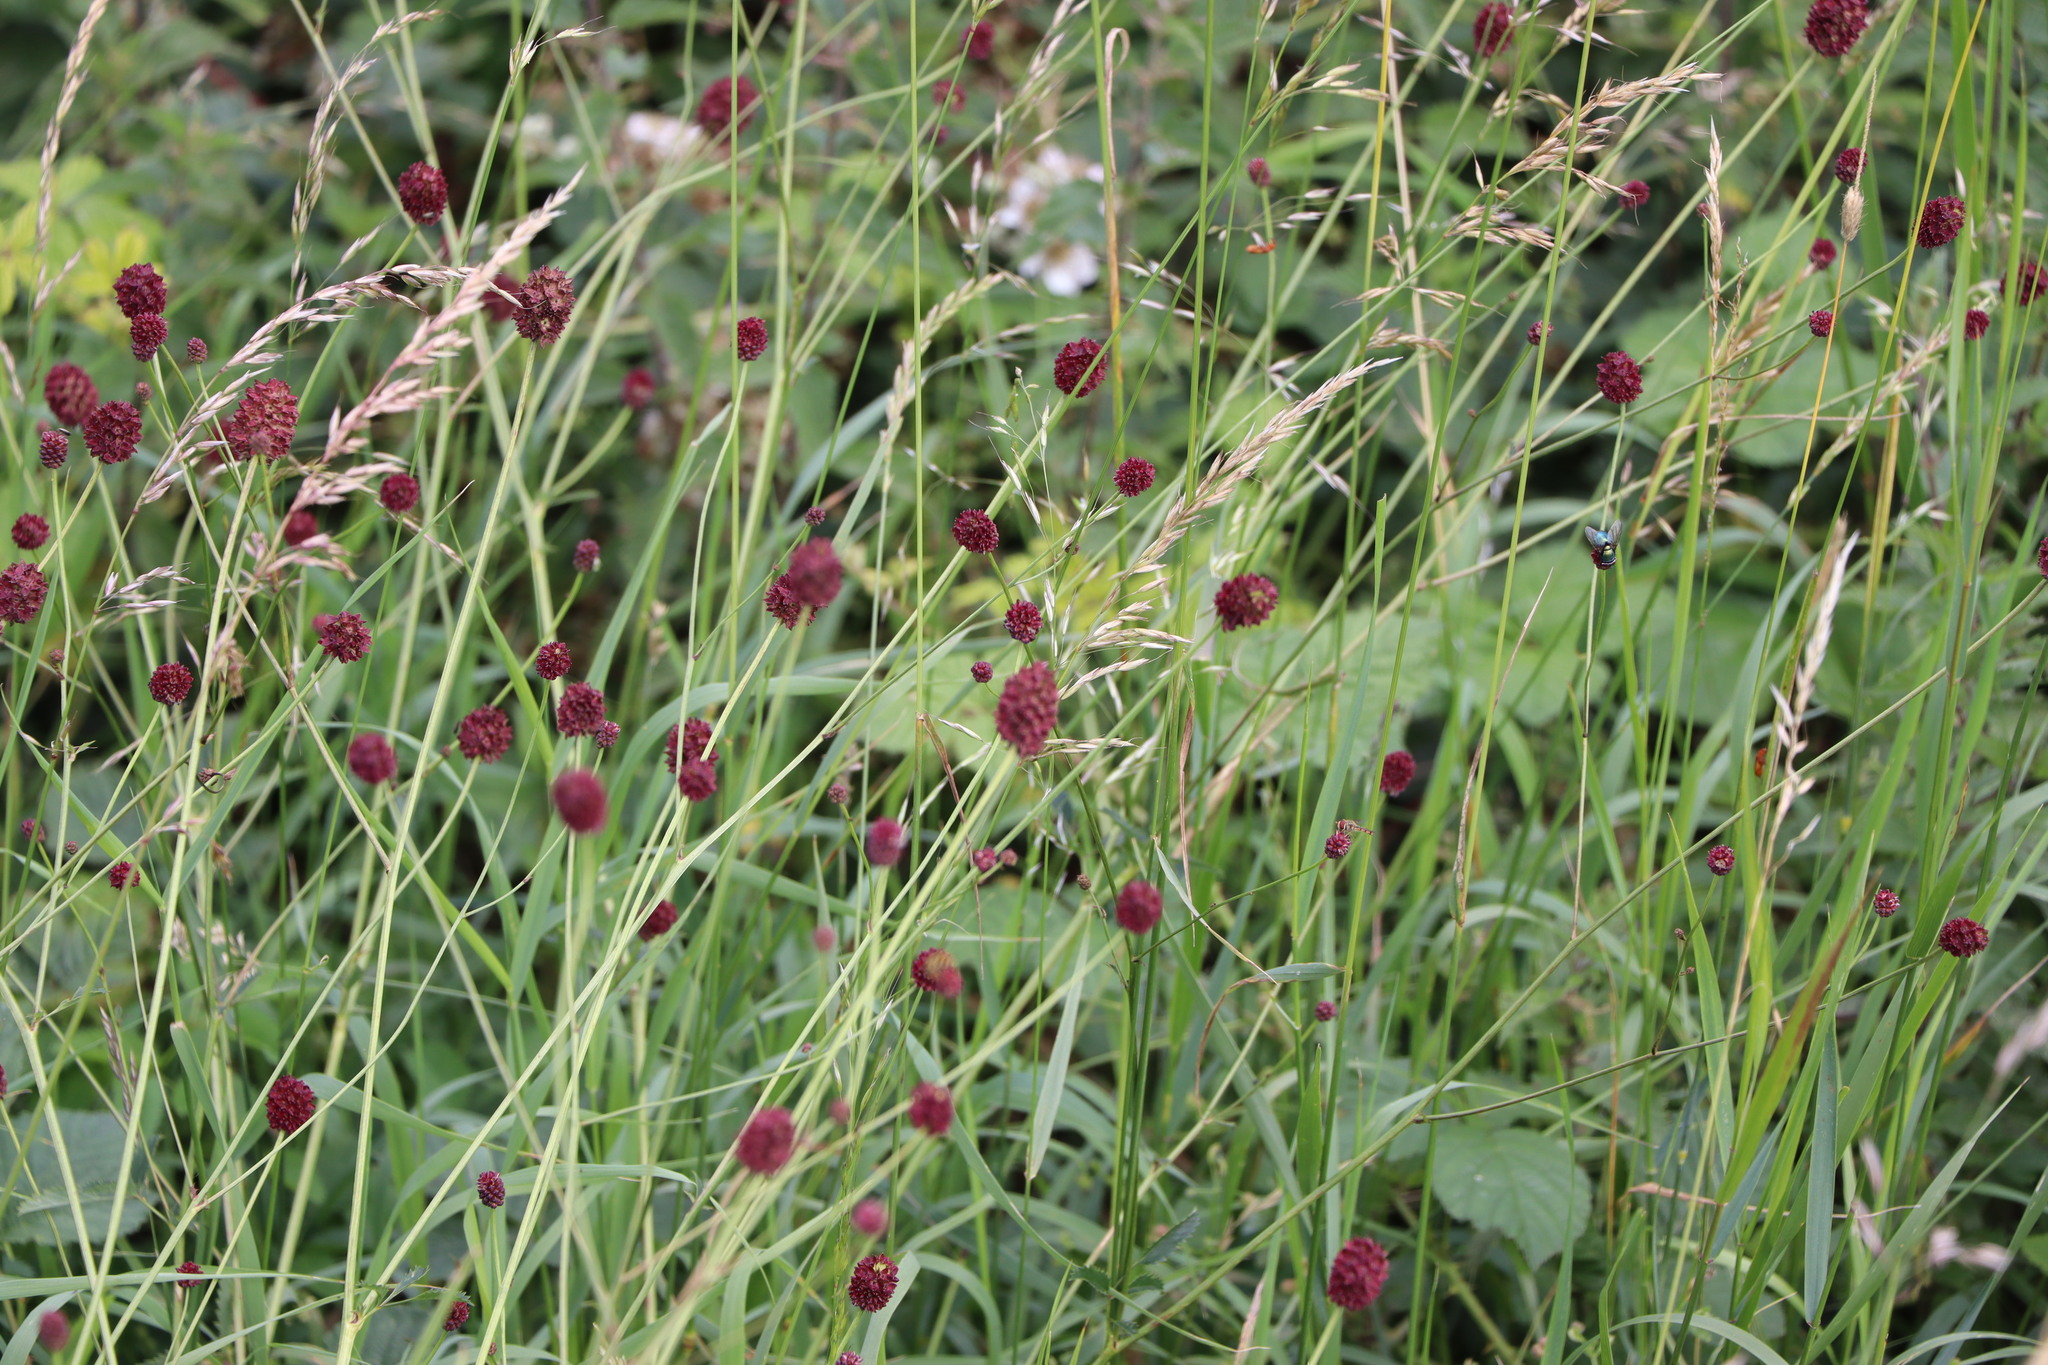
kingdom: Plantae
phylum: Tracheophyta
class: Magnoliopsida
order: Rosales
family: Rosaceae
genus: Sanguisorba
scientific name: Sanguisorba officinalis
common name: Great burnet
